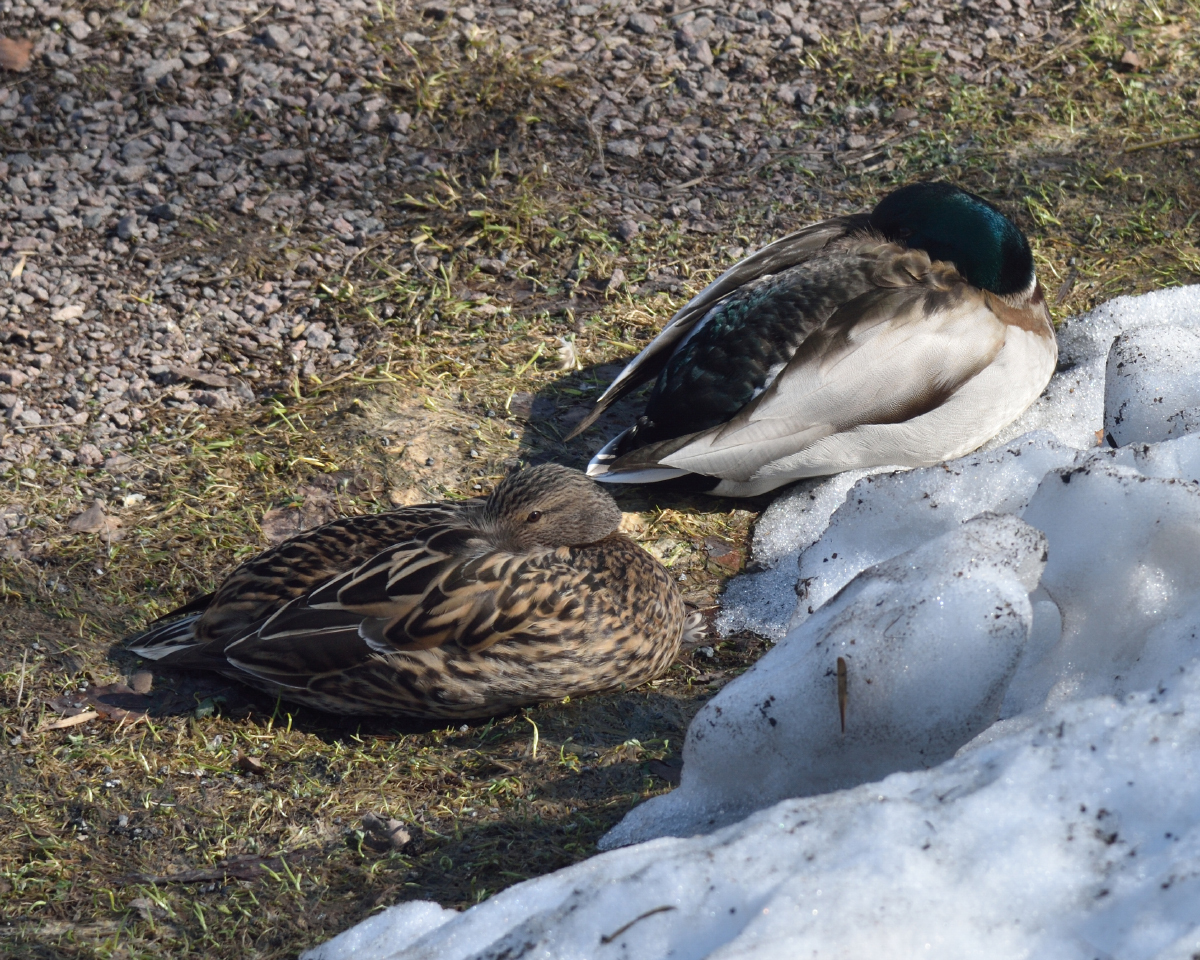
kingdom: Animalia
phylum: Chordata
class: Aves
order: Anseriformes
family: Anatidae
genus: Anas
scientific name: Anas platyrhynchos
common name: Mallard
